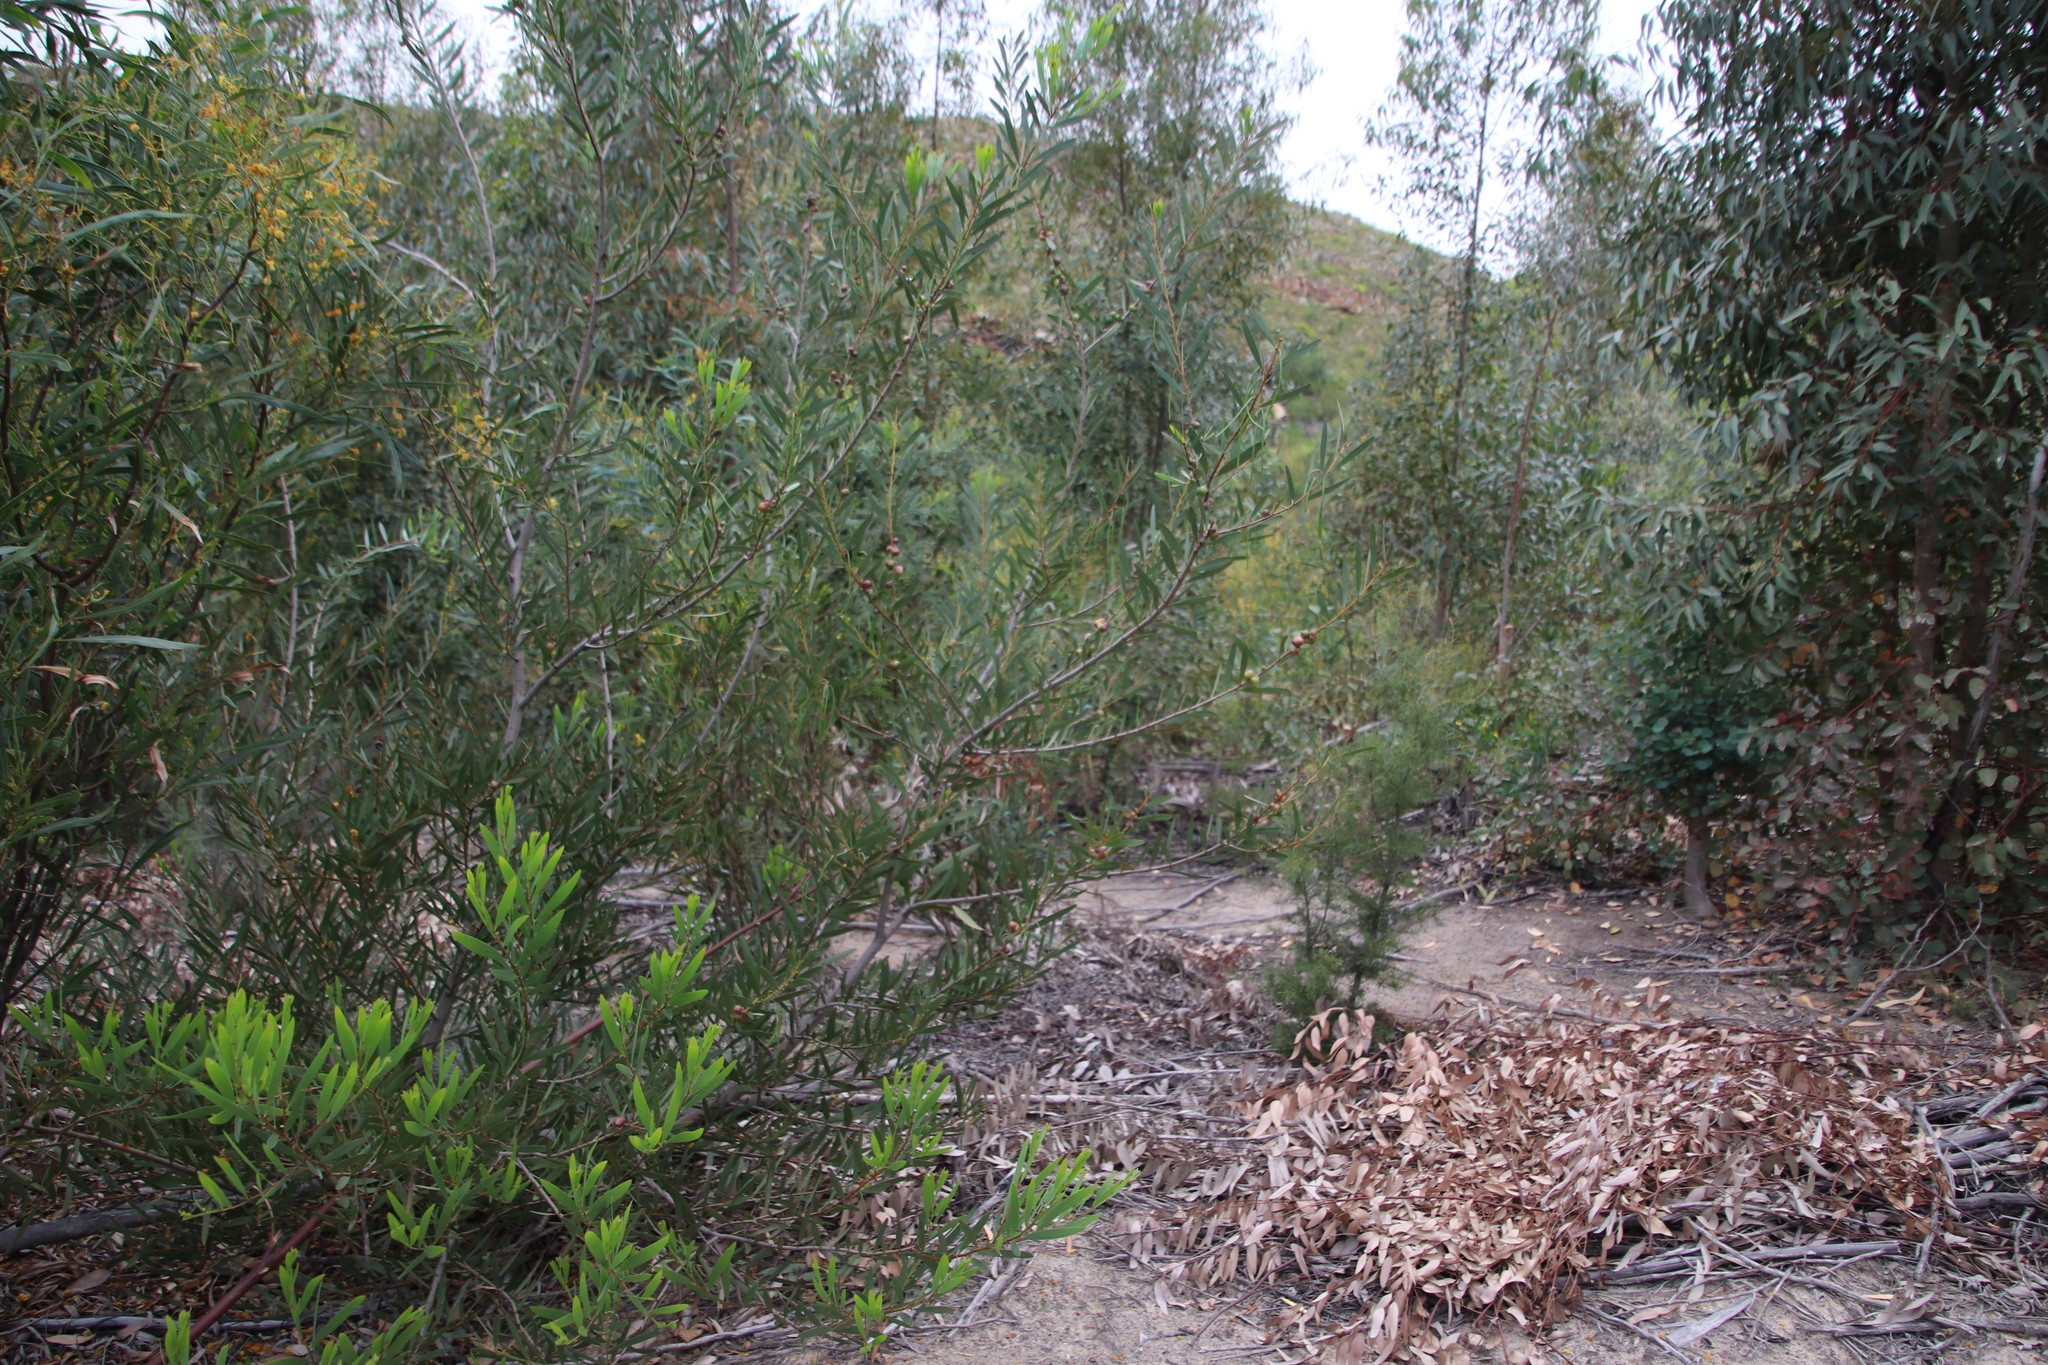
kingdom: Plantae
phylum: Tracheophyta
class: Magnoliopsida
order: Fabales
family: Fabaceae
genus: Acacia
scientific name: Acacia longifolia
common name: Sydney golden wattle
